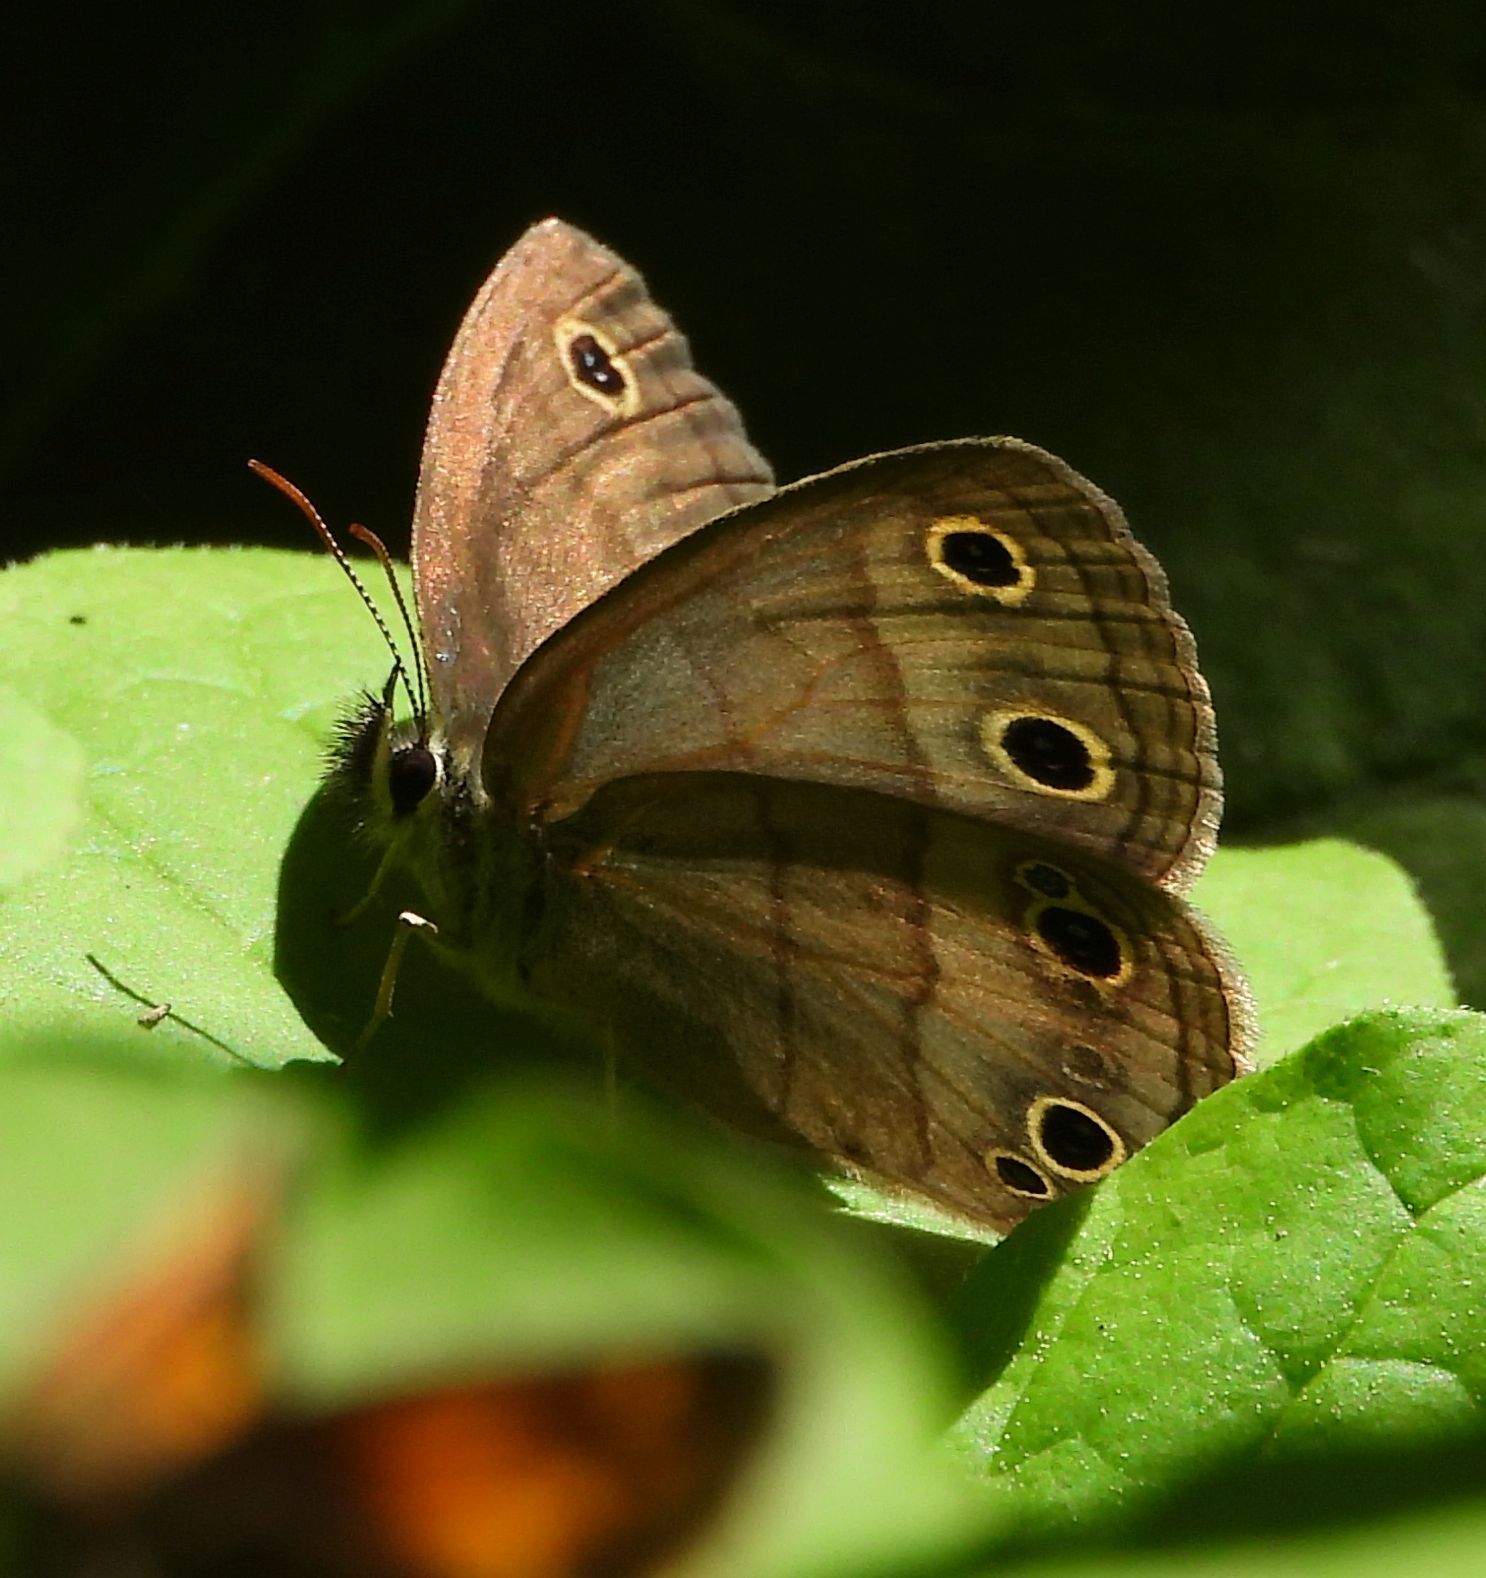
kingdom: Animalia
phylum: Arthropoda
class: Insecta
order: Lepidoptera
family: Nymphalidae
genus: Euptychia
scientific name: Euptychia cymela
